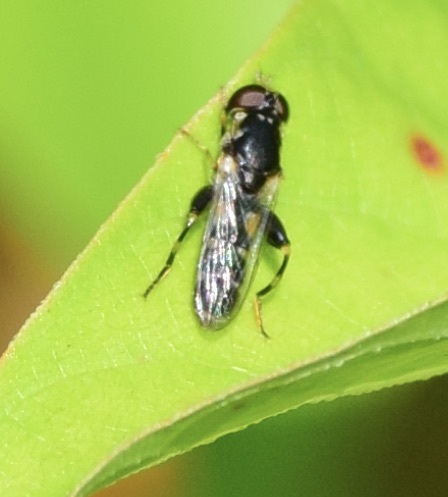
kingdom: Animalia
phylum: Arthropoda
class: Insecta
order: Diptera
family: Syrphidae
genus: Syritta
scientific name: Syritta pipiens
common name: Hover fly
